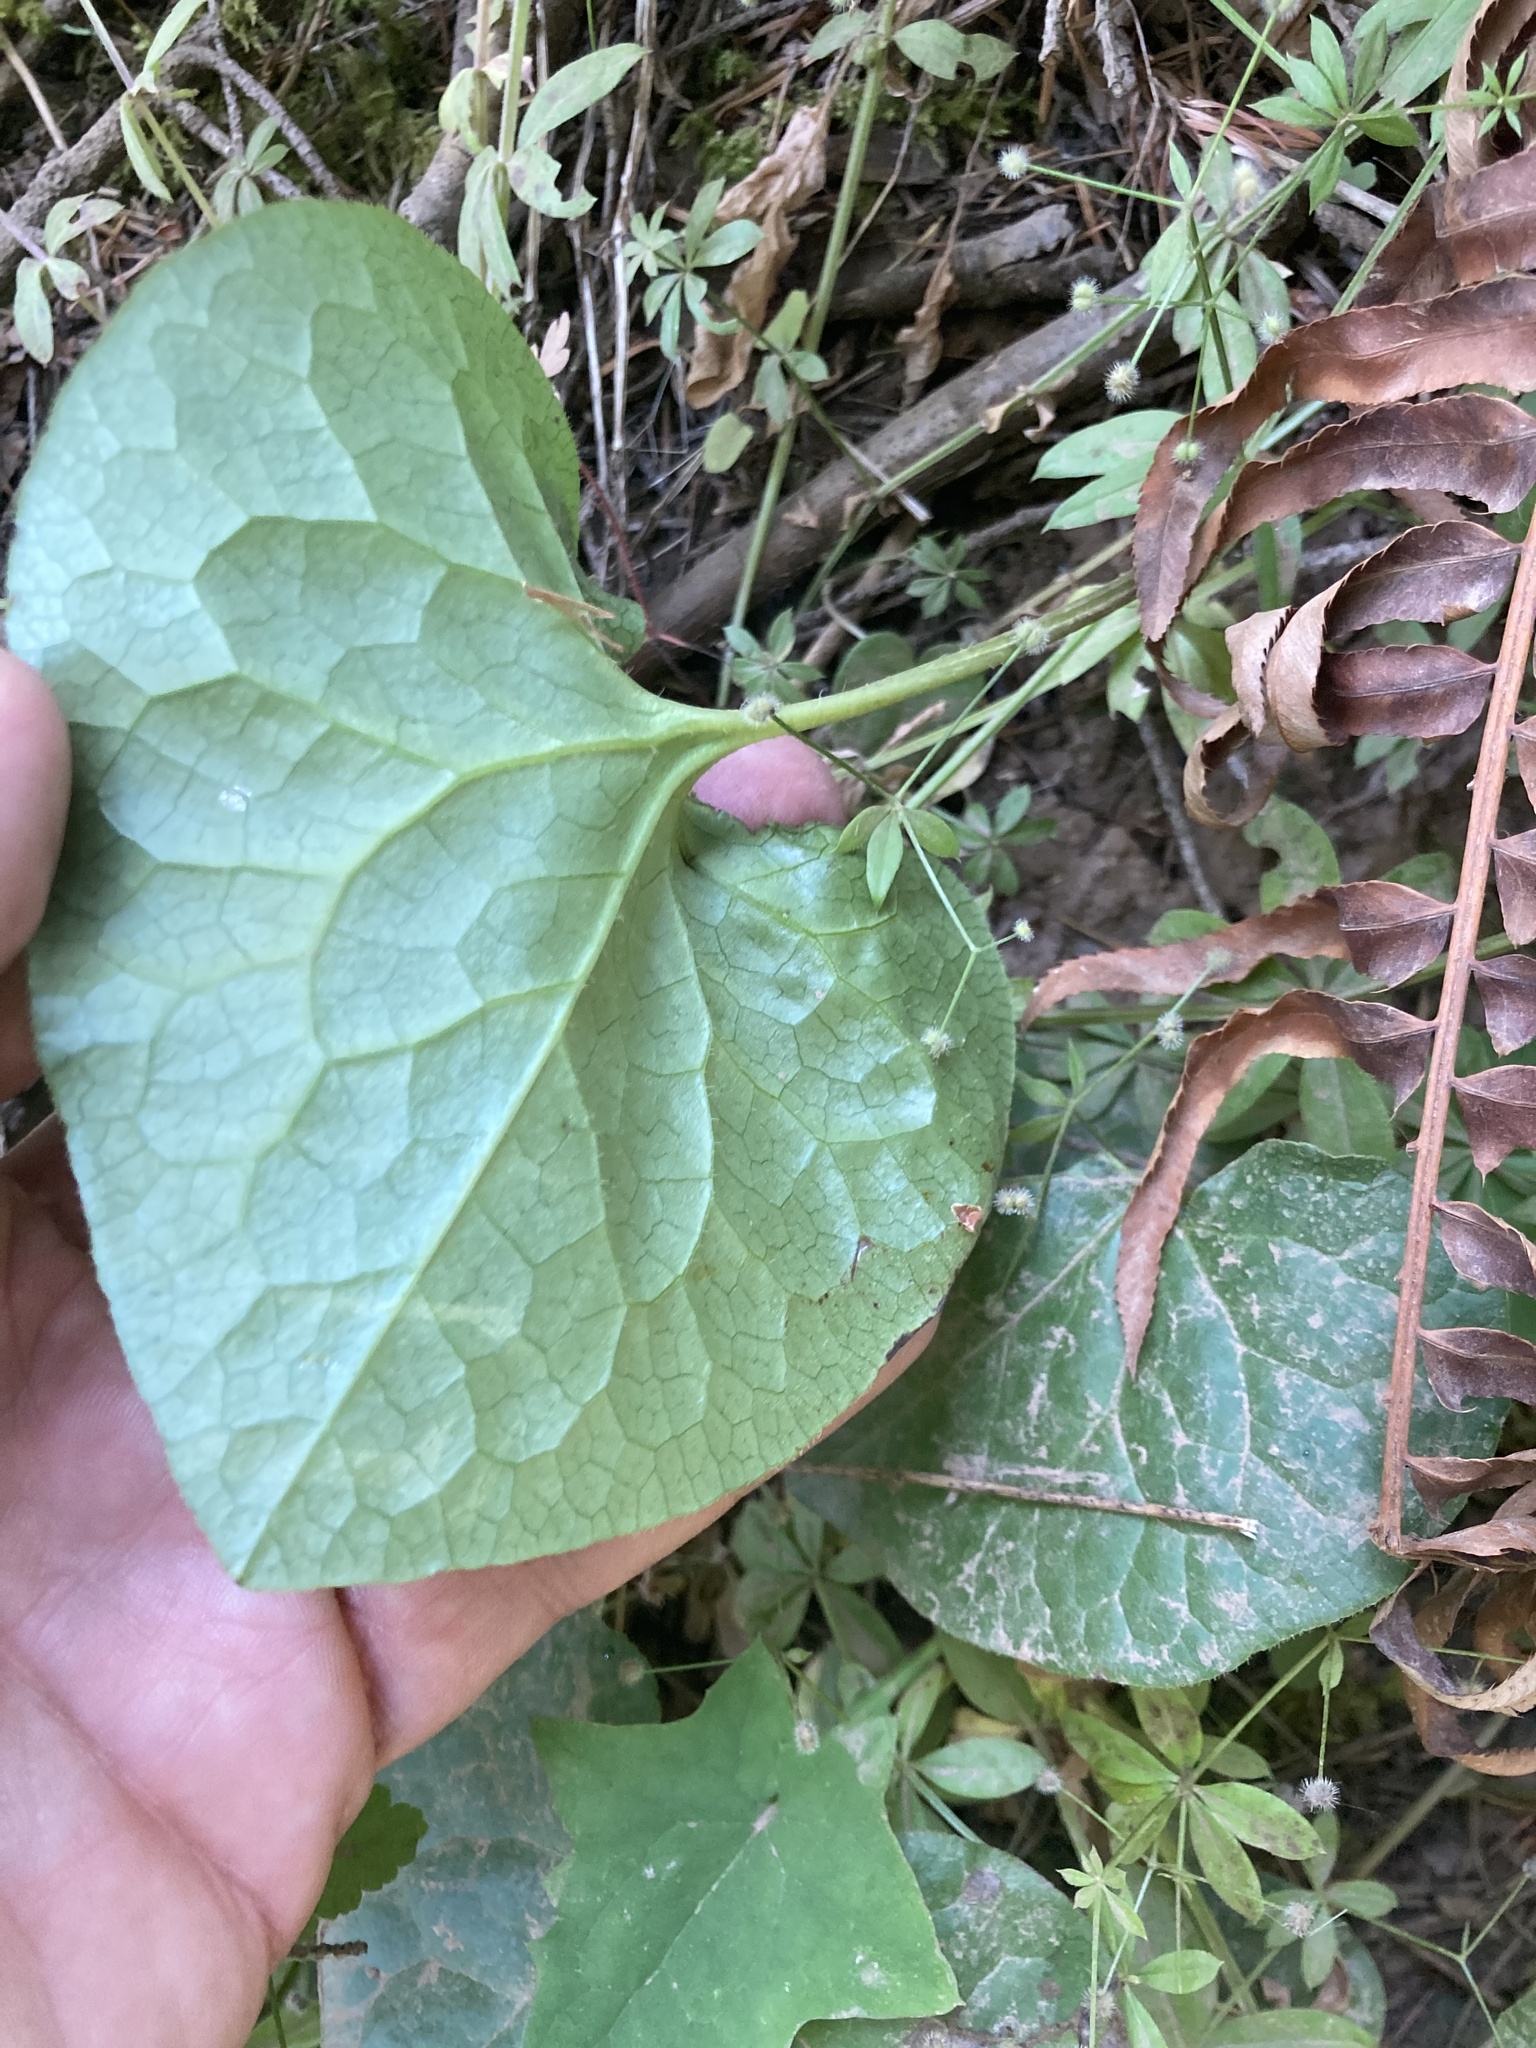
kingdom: Plantae
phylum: Tracheophyta
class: Magnoliopsida
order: Piperales
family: Aristolochiaceae
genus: Asarum
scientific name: Asarum caudatum
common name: Wild ginger
